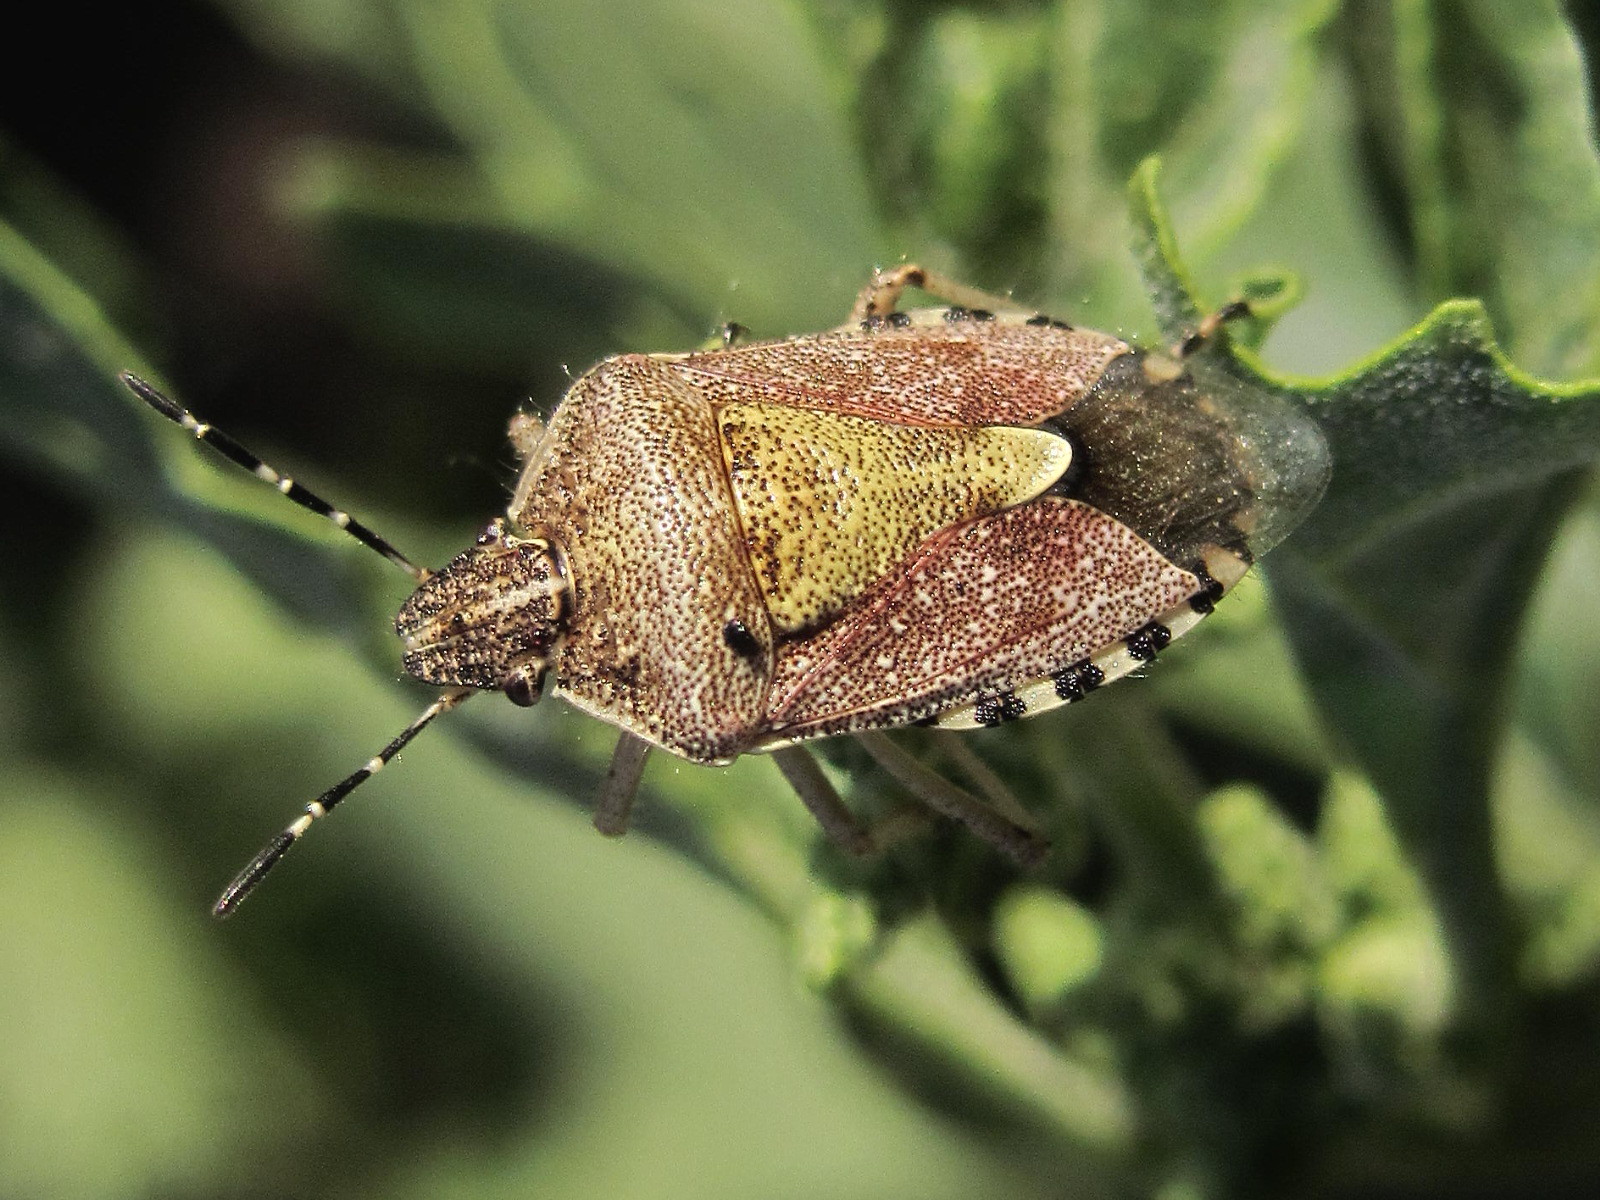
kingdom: Animalia
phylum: Arthropoda
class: Insecta
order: Hemiptera
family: Pentatomidae
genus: Dolycoris
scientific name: Dolycoris baccarum
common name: Sloe bug
